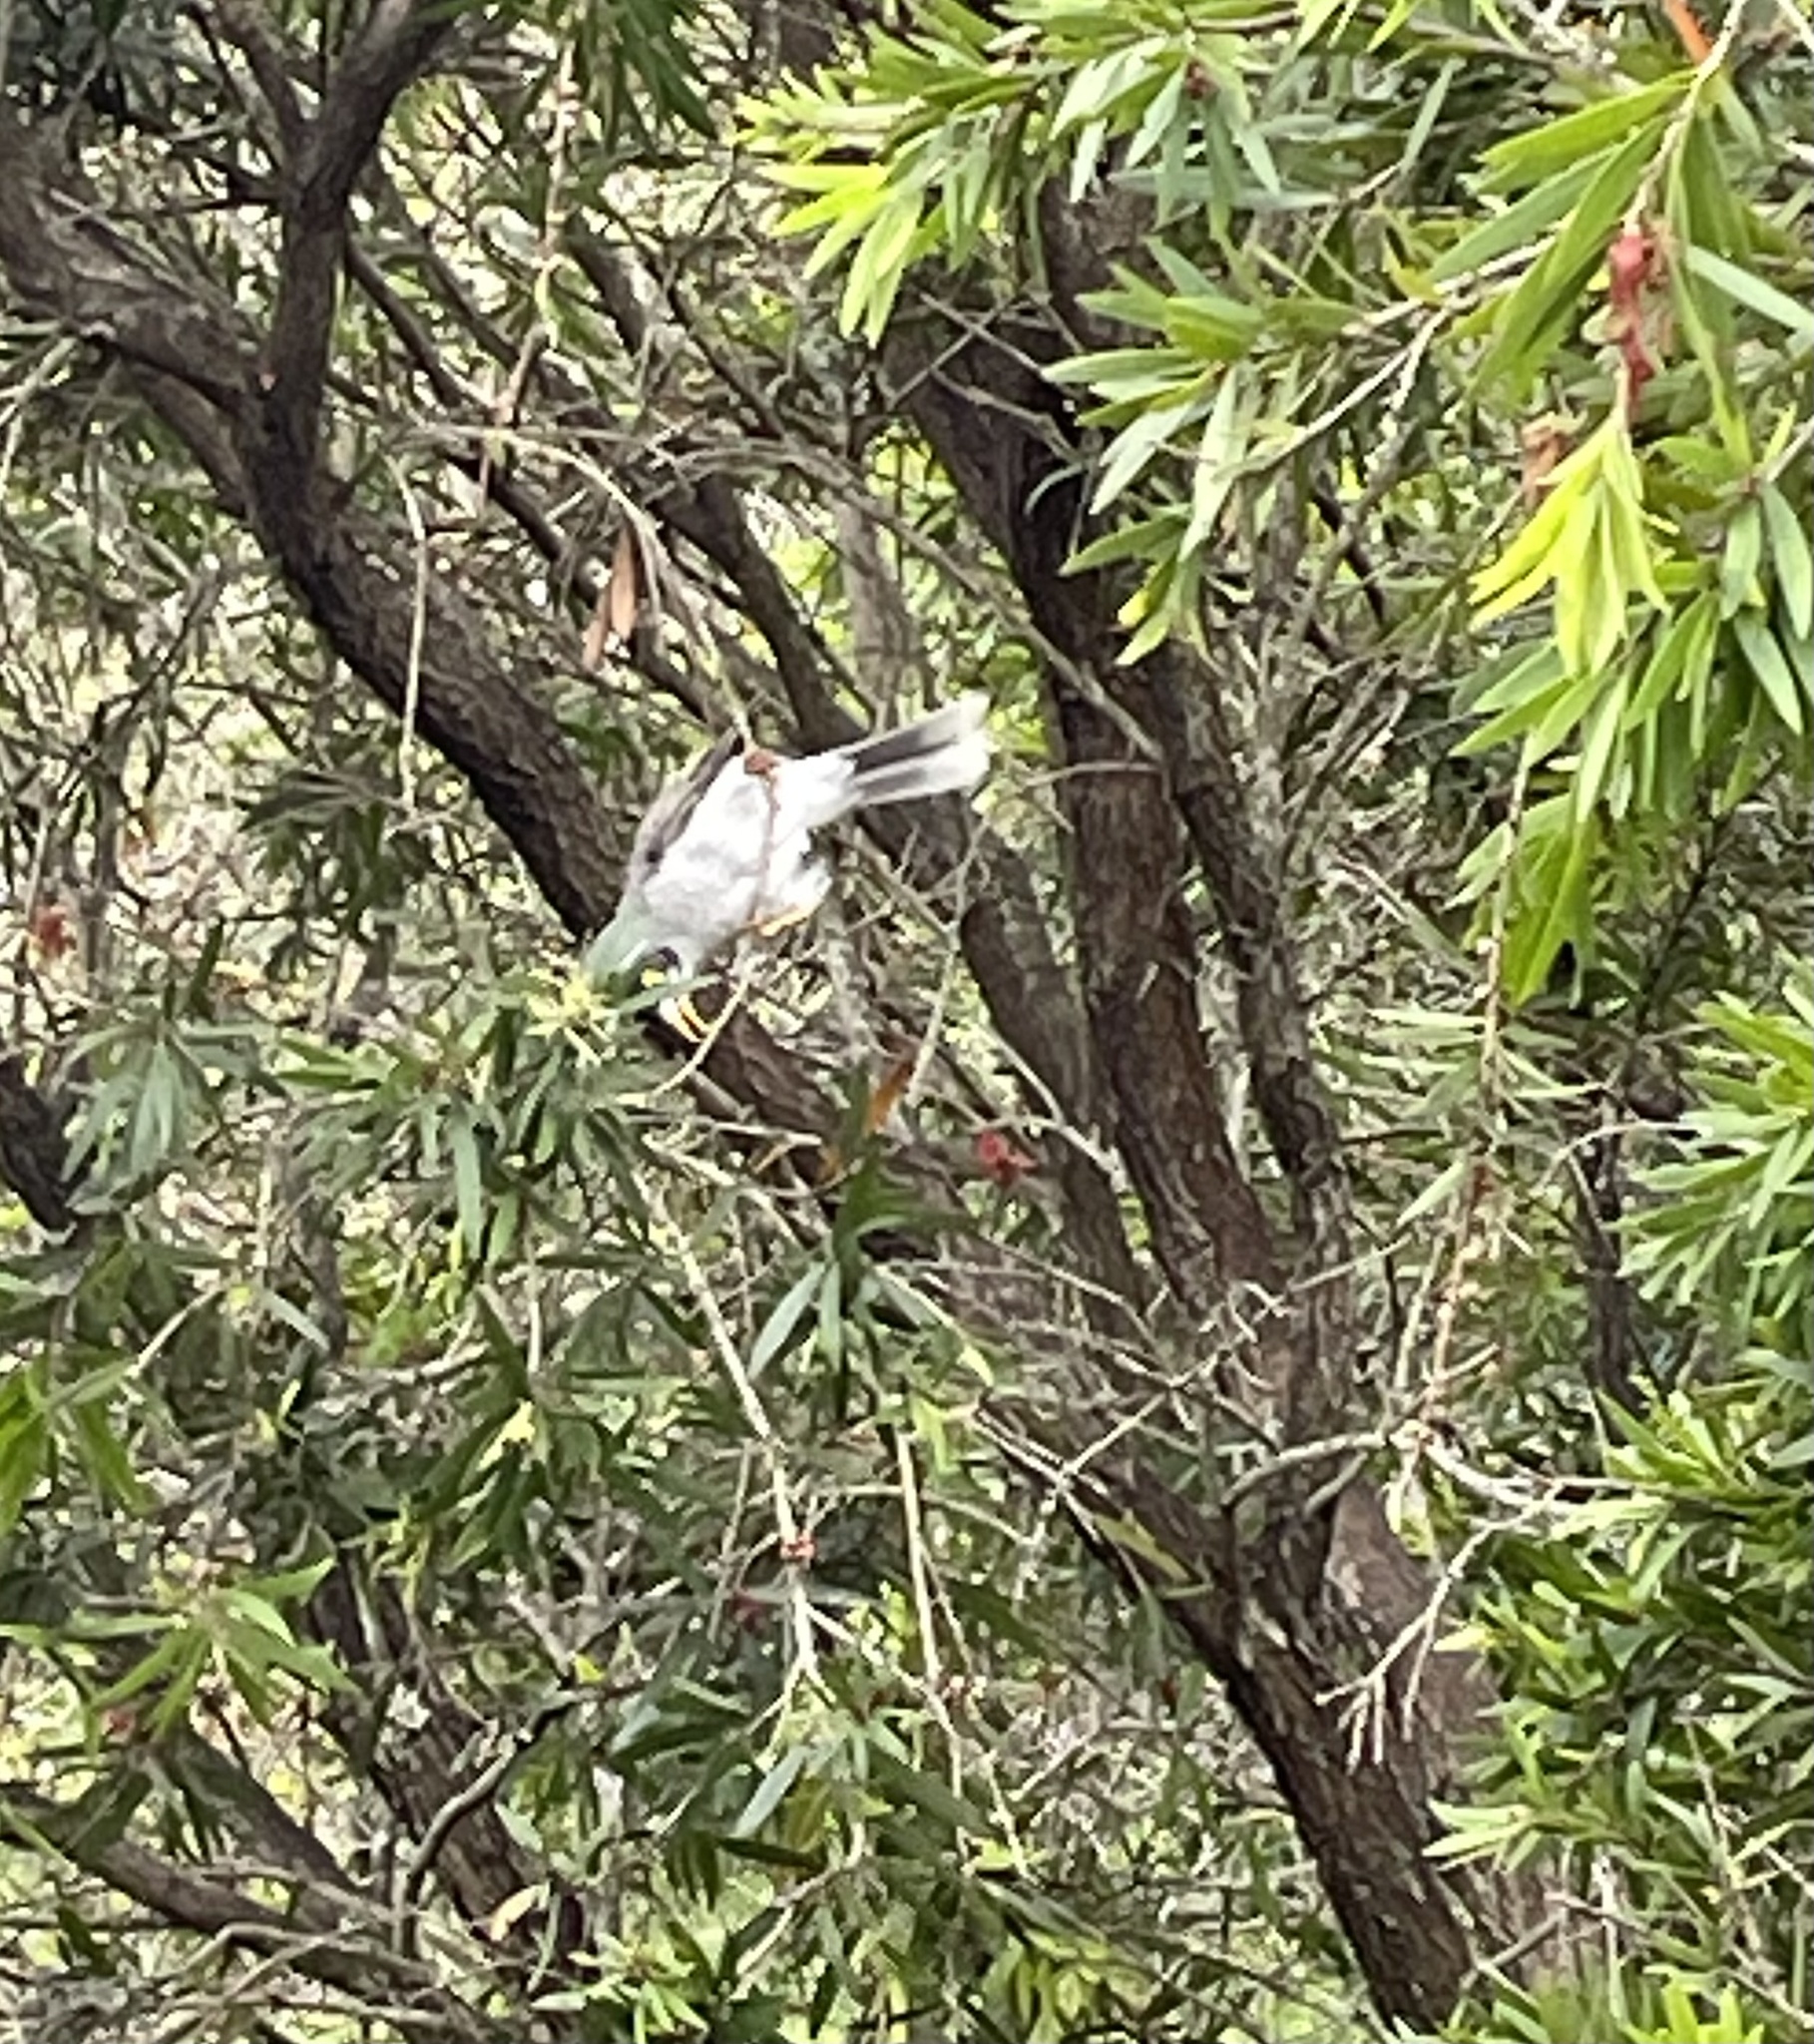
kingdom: Animalia
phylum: Chordata
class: Aves
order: Passeriformes
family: Meliphagidae
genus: Manorina
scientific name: Manorina melanocephala
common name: Noisy miner
